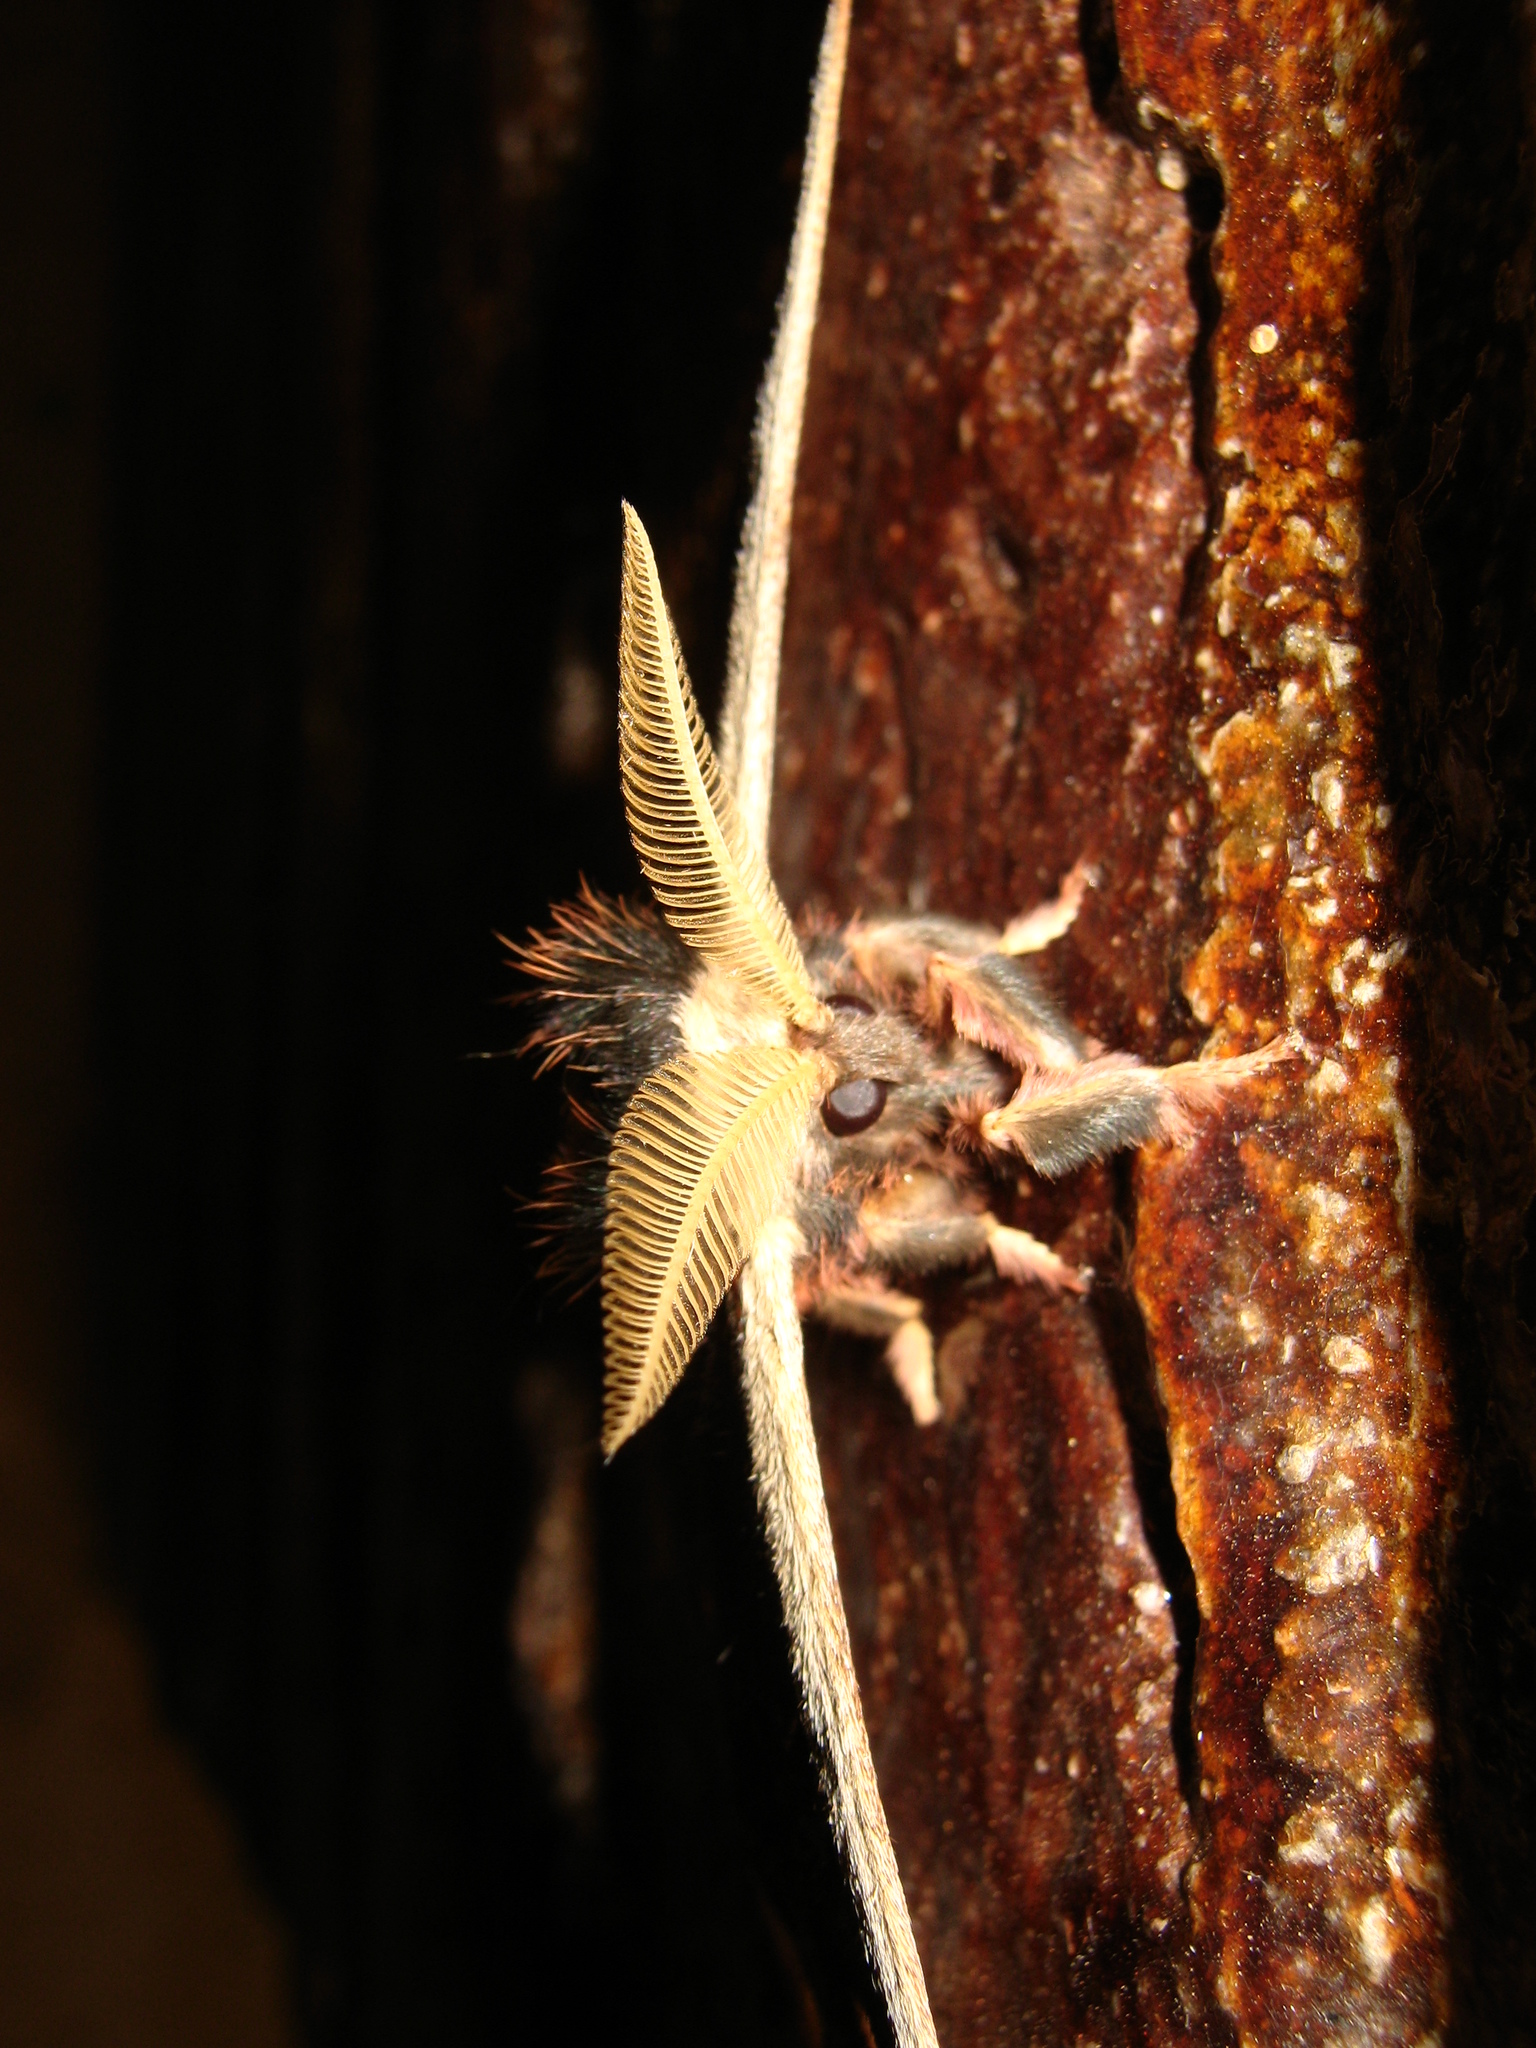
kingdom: Animalia
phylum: Arthropoda
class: Insecta
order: Lepidoptera
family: Saturniidae
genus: Copaxa
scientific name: Copaxa copaxoides
